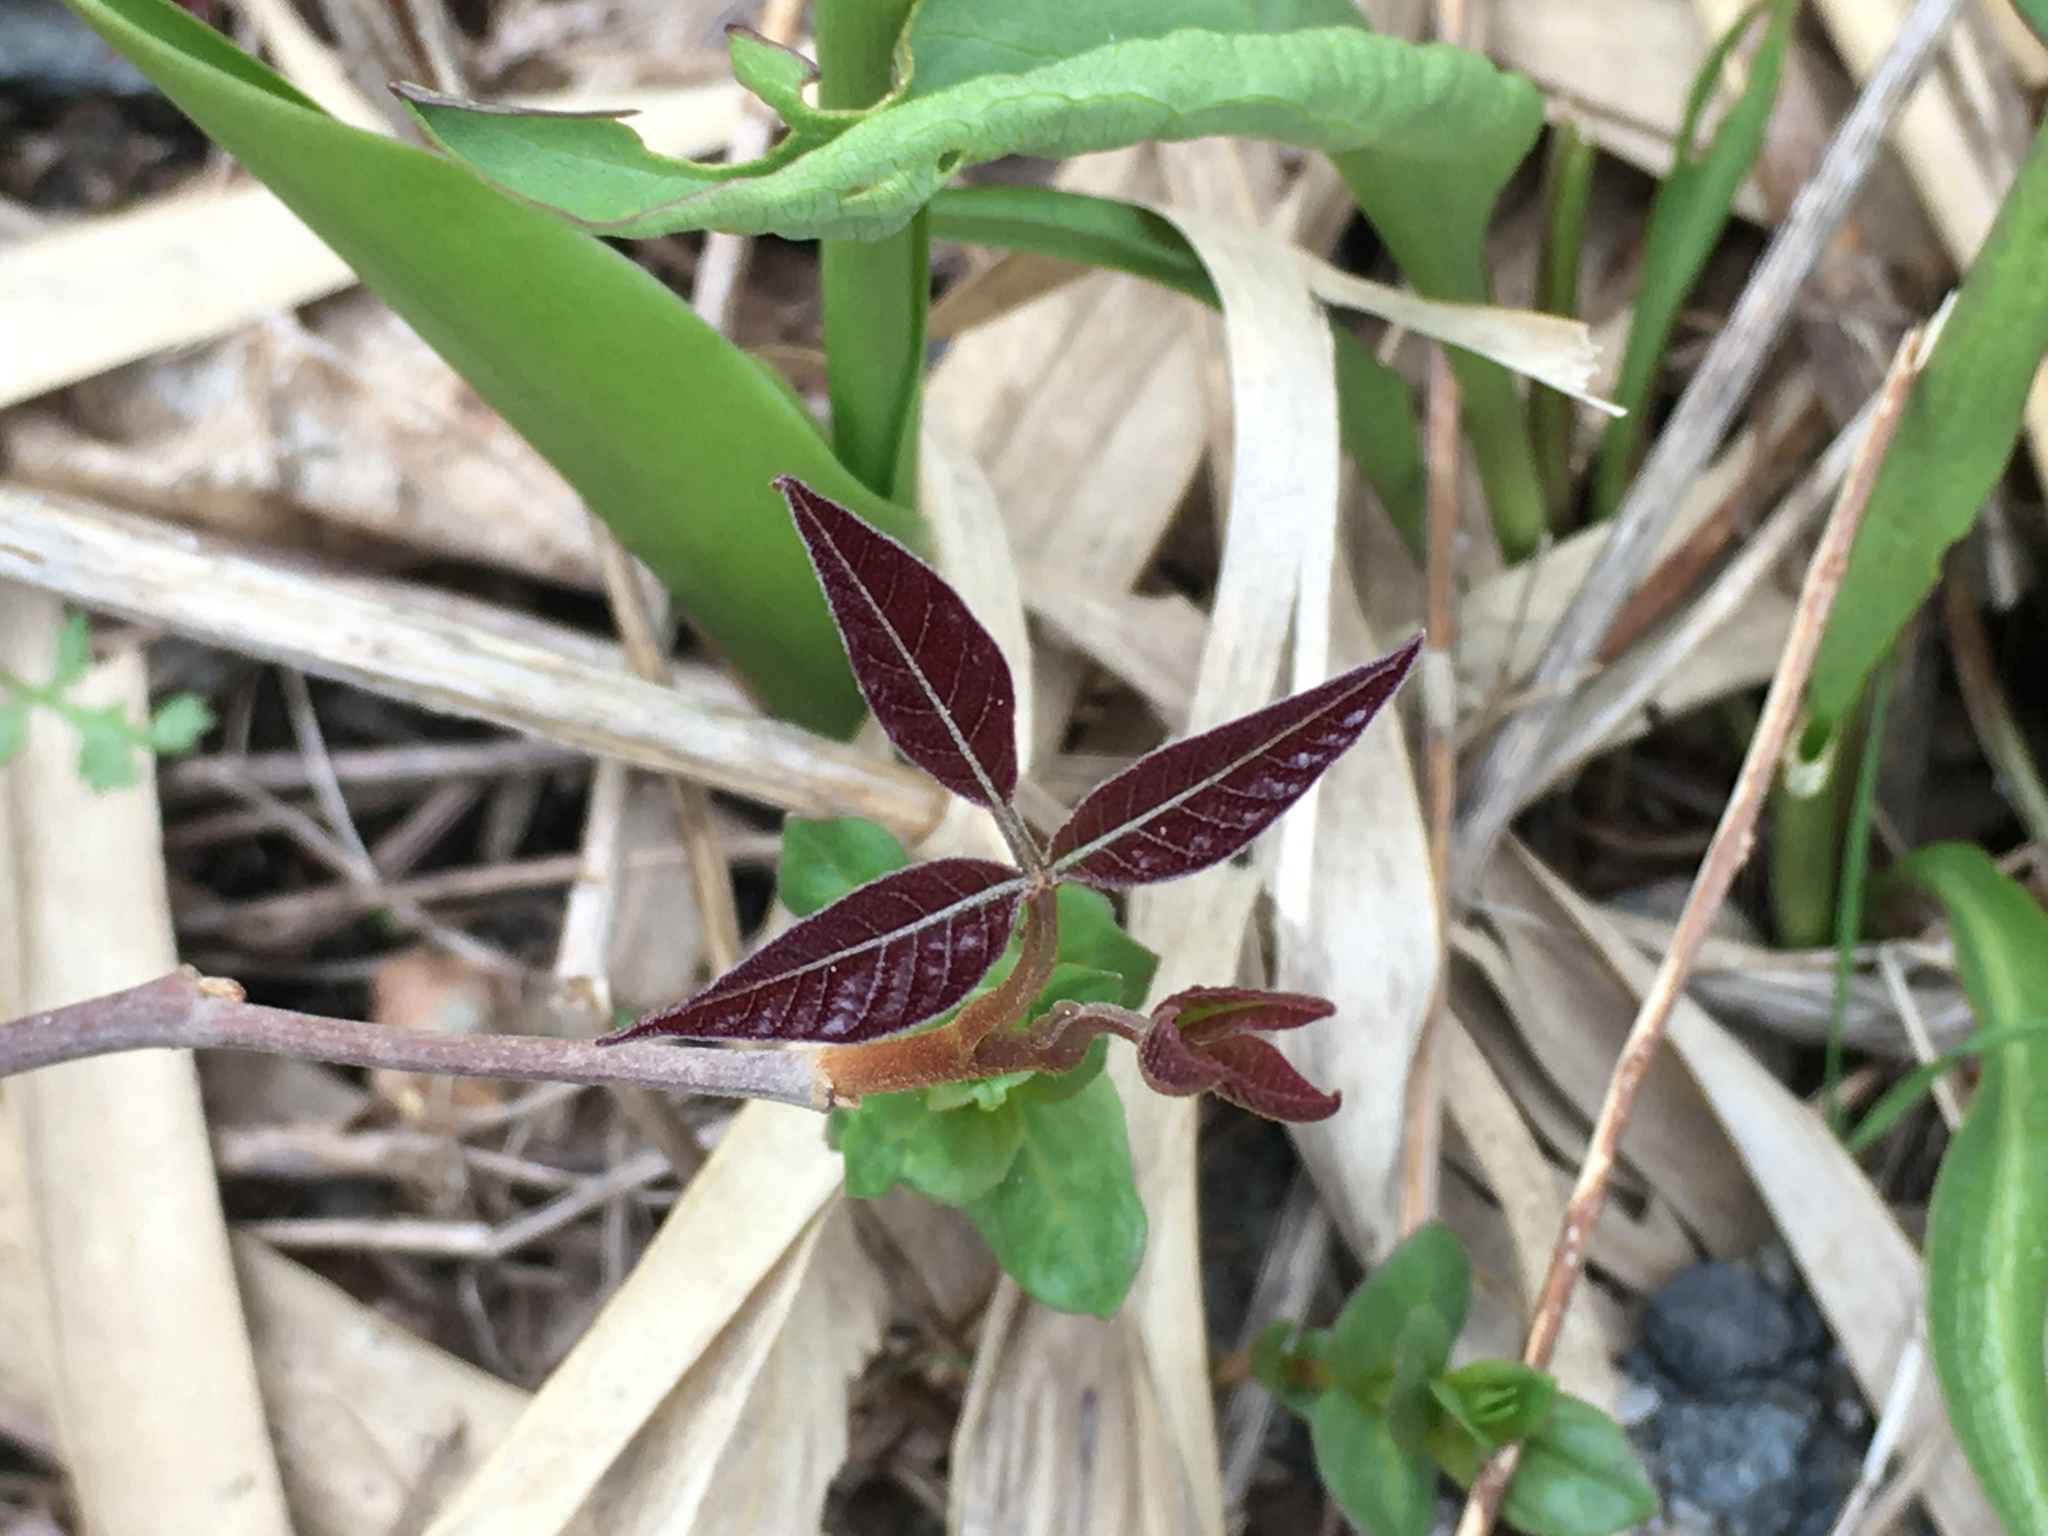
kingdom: Plantae
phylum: Tracheophyta
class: Magnoliopsida
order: Sapindales
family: Anacardiaceae
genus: Toxicodendron
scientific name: Toxicodendron radicans
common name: Poison ivy
